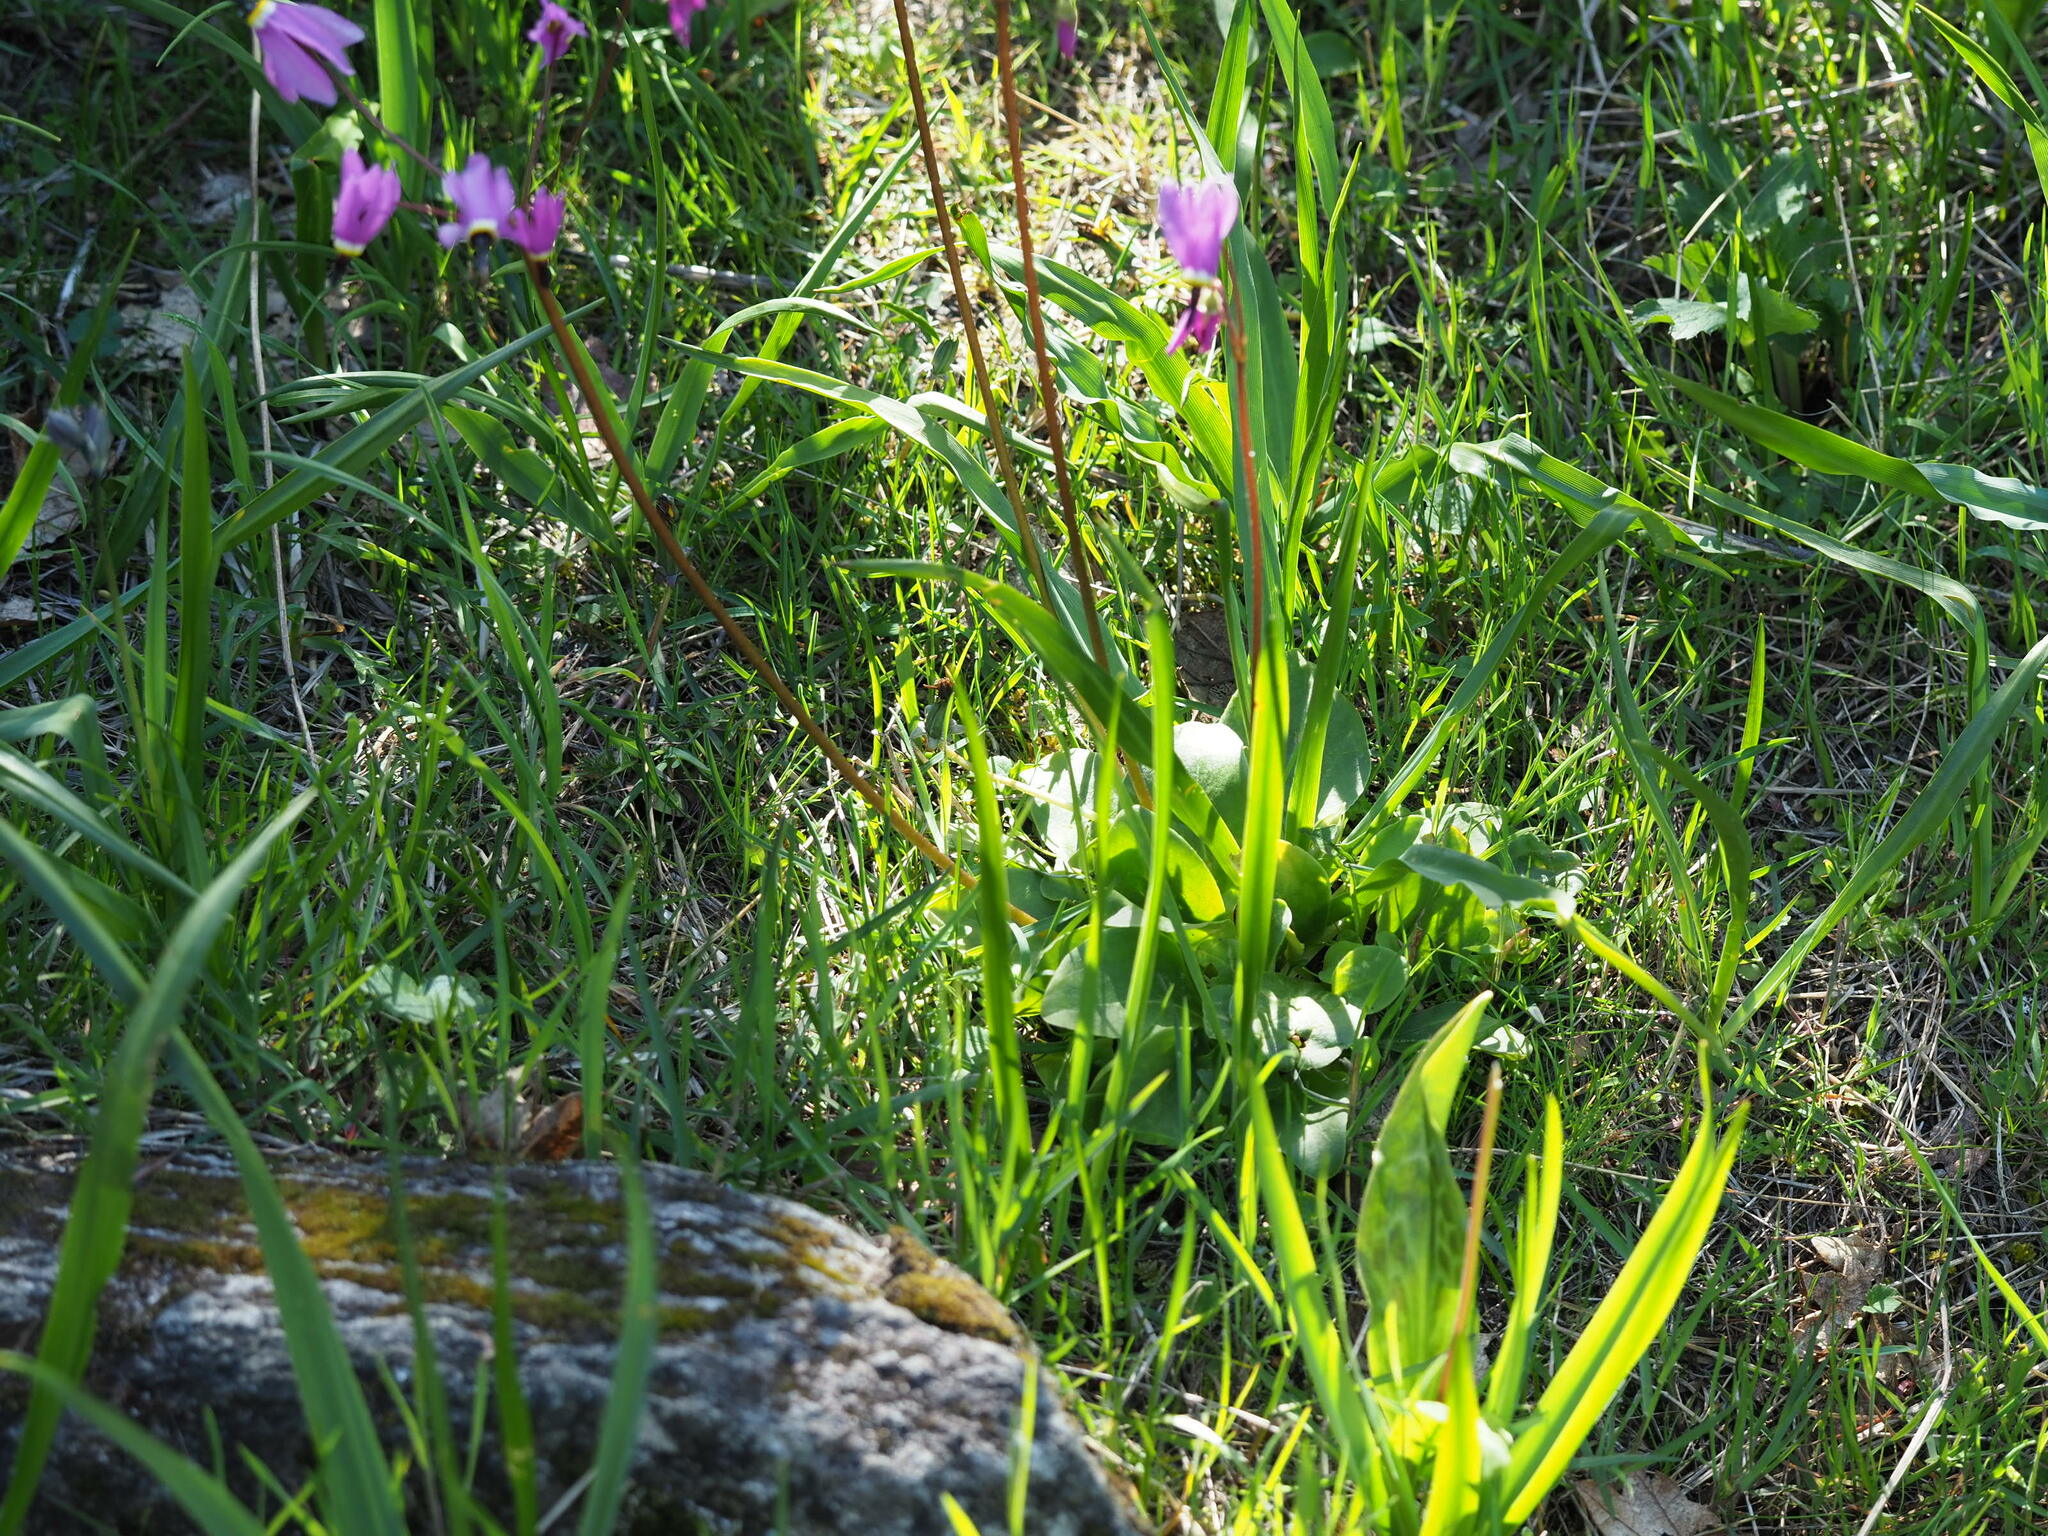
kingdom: Plantae
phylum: Tracheophyta
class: Magnoliopsida
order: Ericales
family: Primulaceae
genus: Dodecatheon
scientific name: Dodecatheon hendersonii
